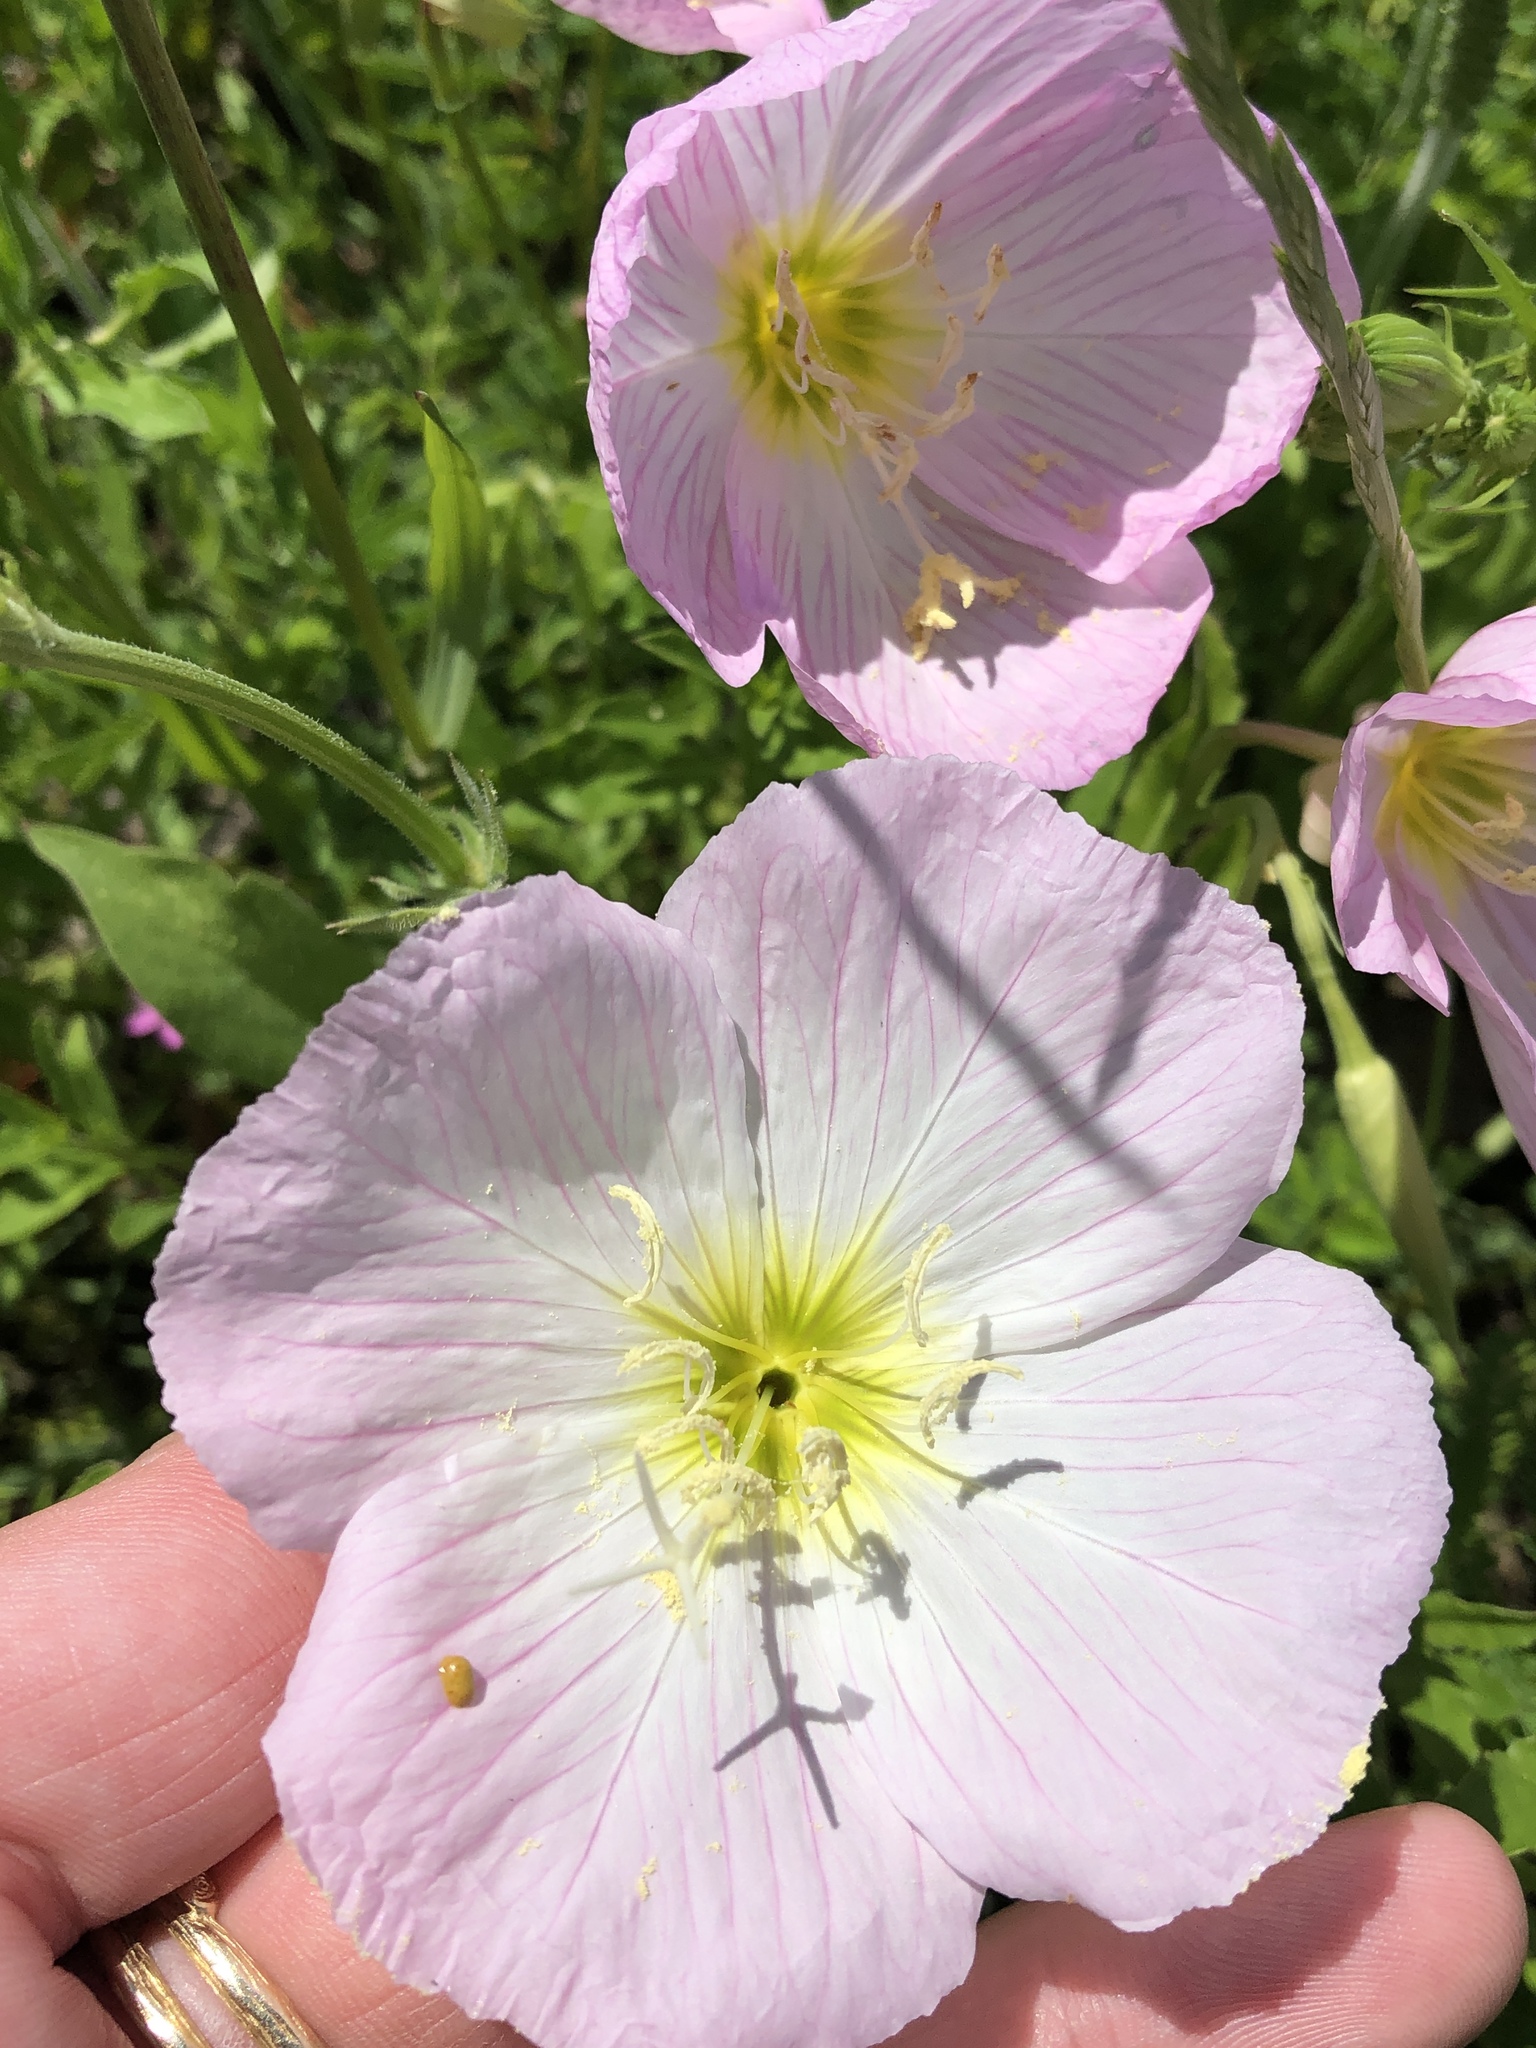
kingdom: Plantae
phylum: Tracheophyta
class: Magnoliopsida
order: Myrtales
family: Onagraceae
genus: Oenothera
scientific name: Oenothera speciosa
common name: White evening-primrose
